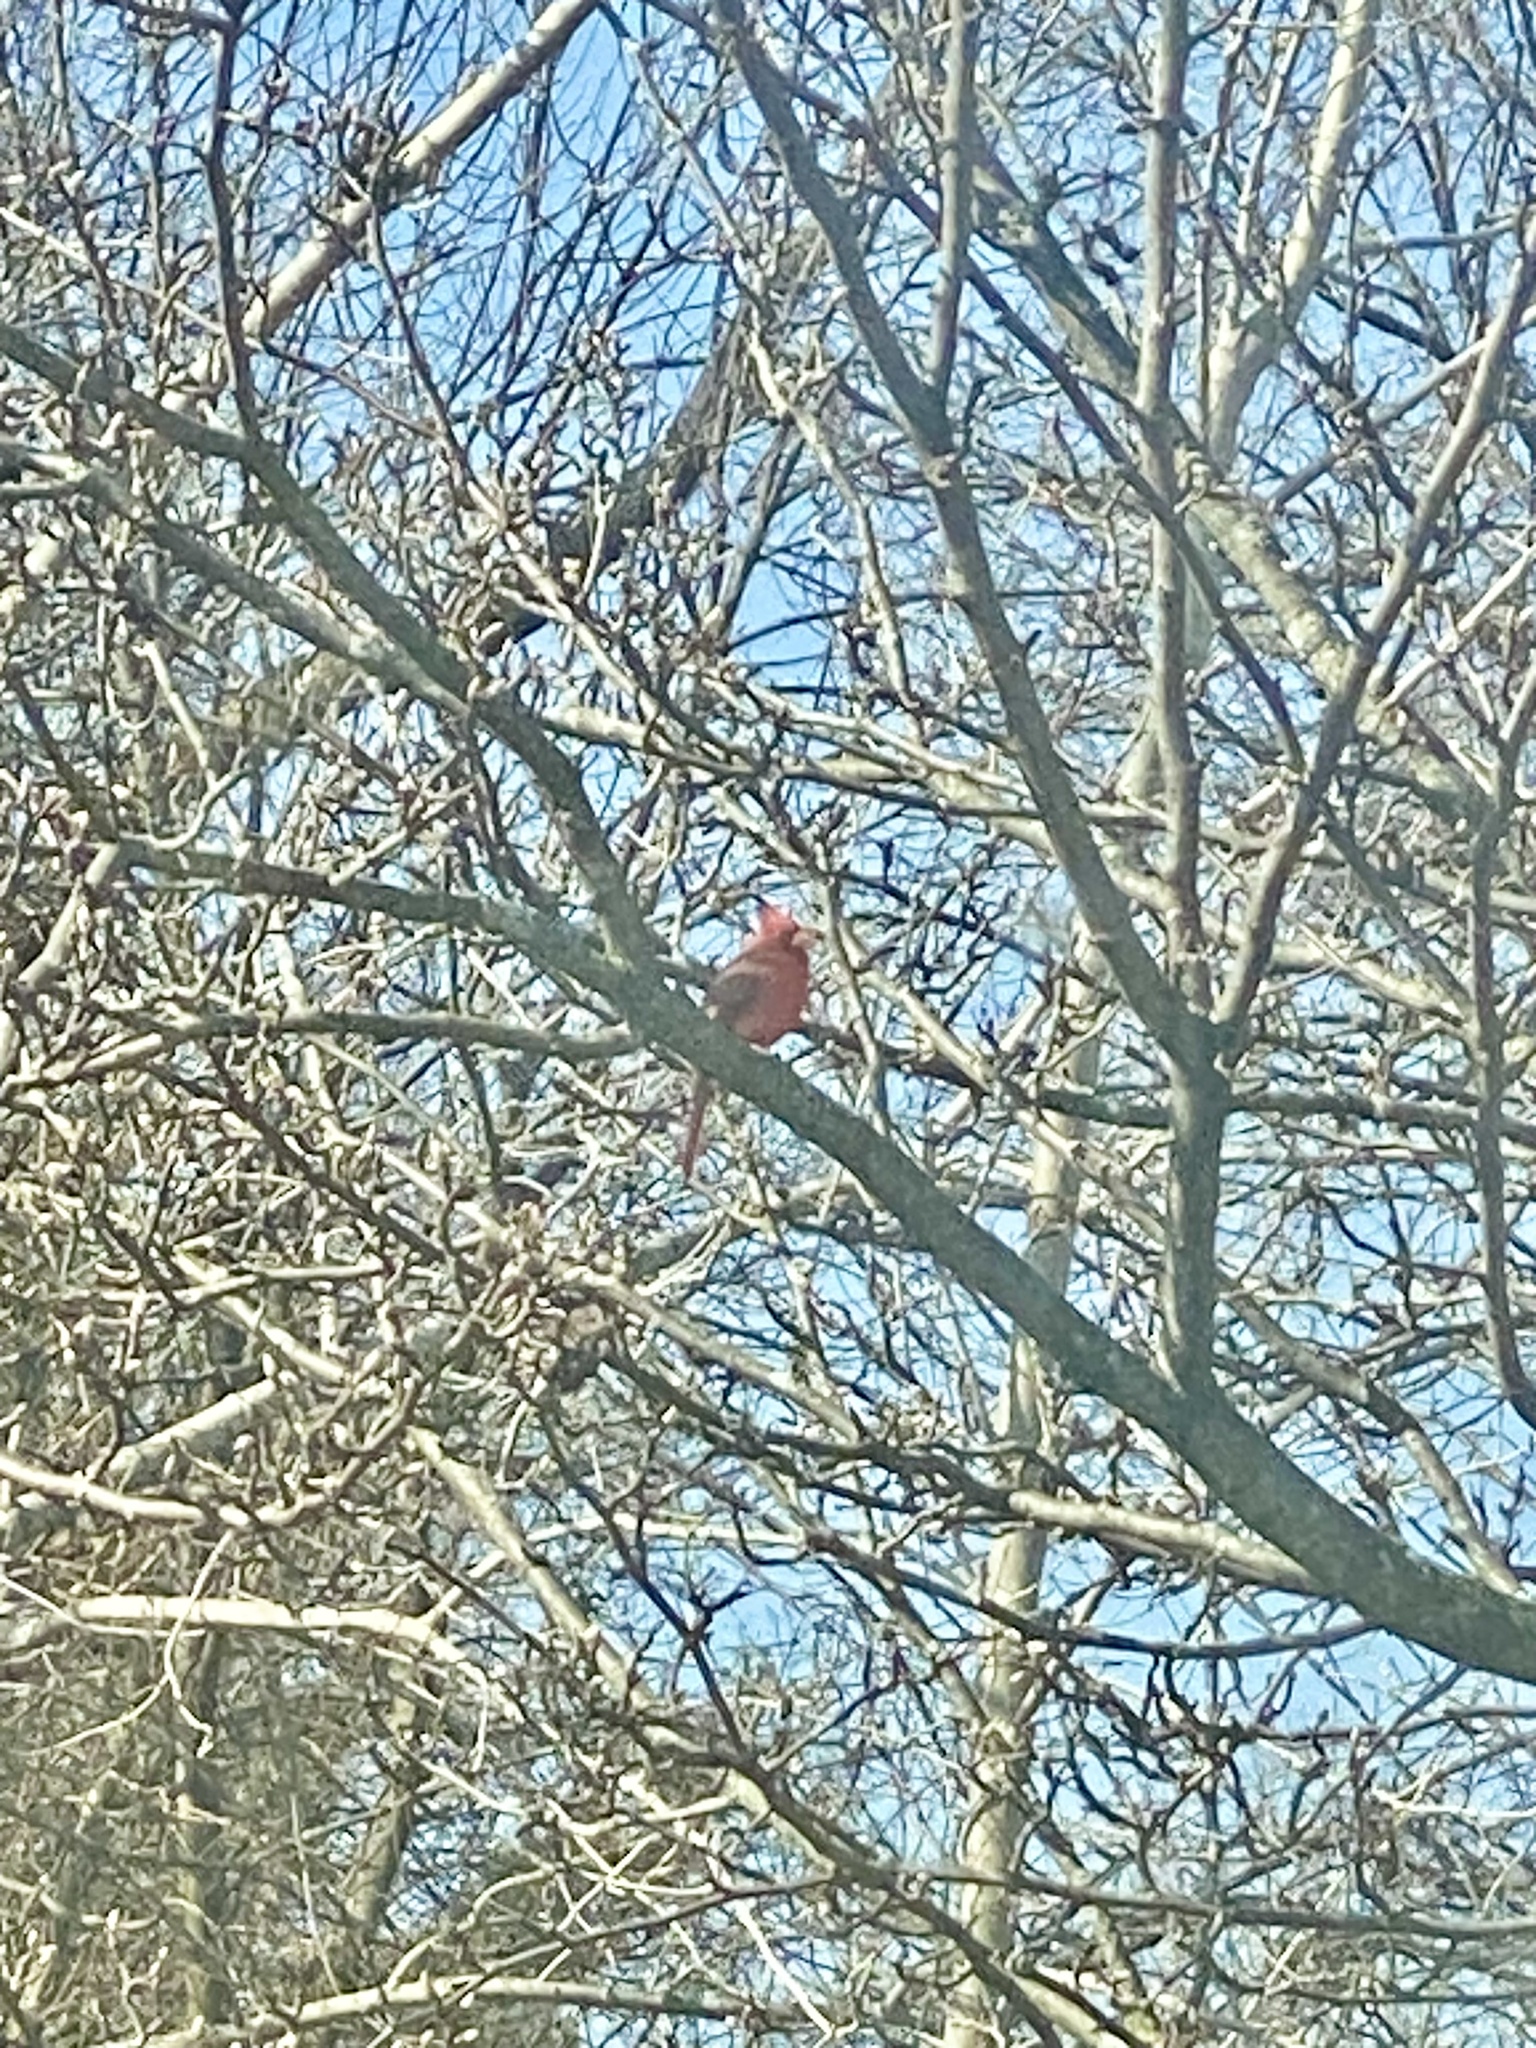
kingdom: Animalia
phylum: Chordata
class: Aves
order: Passeriformes
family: Cardinalidae
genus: Cardinalis
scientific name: Cardinalis cardinalis
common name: Northern cardinal
